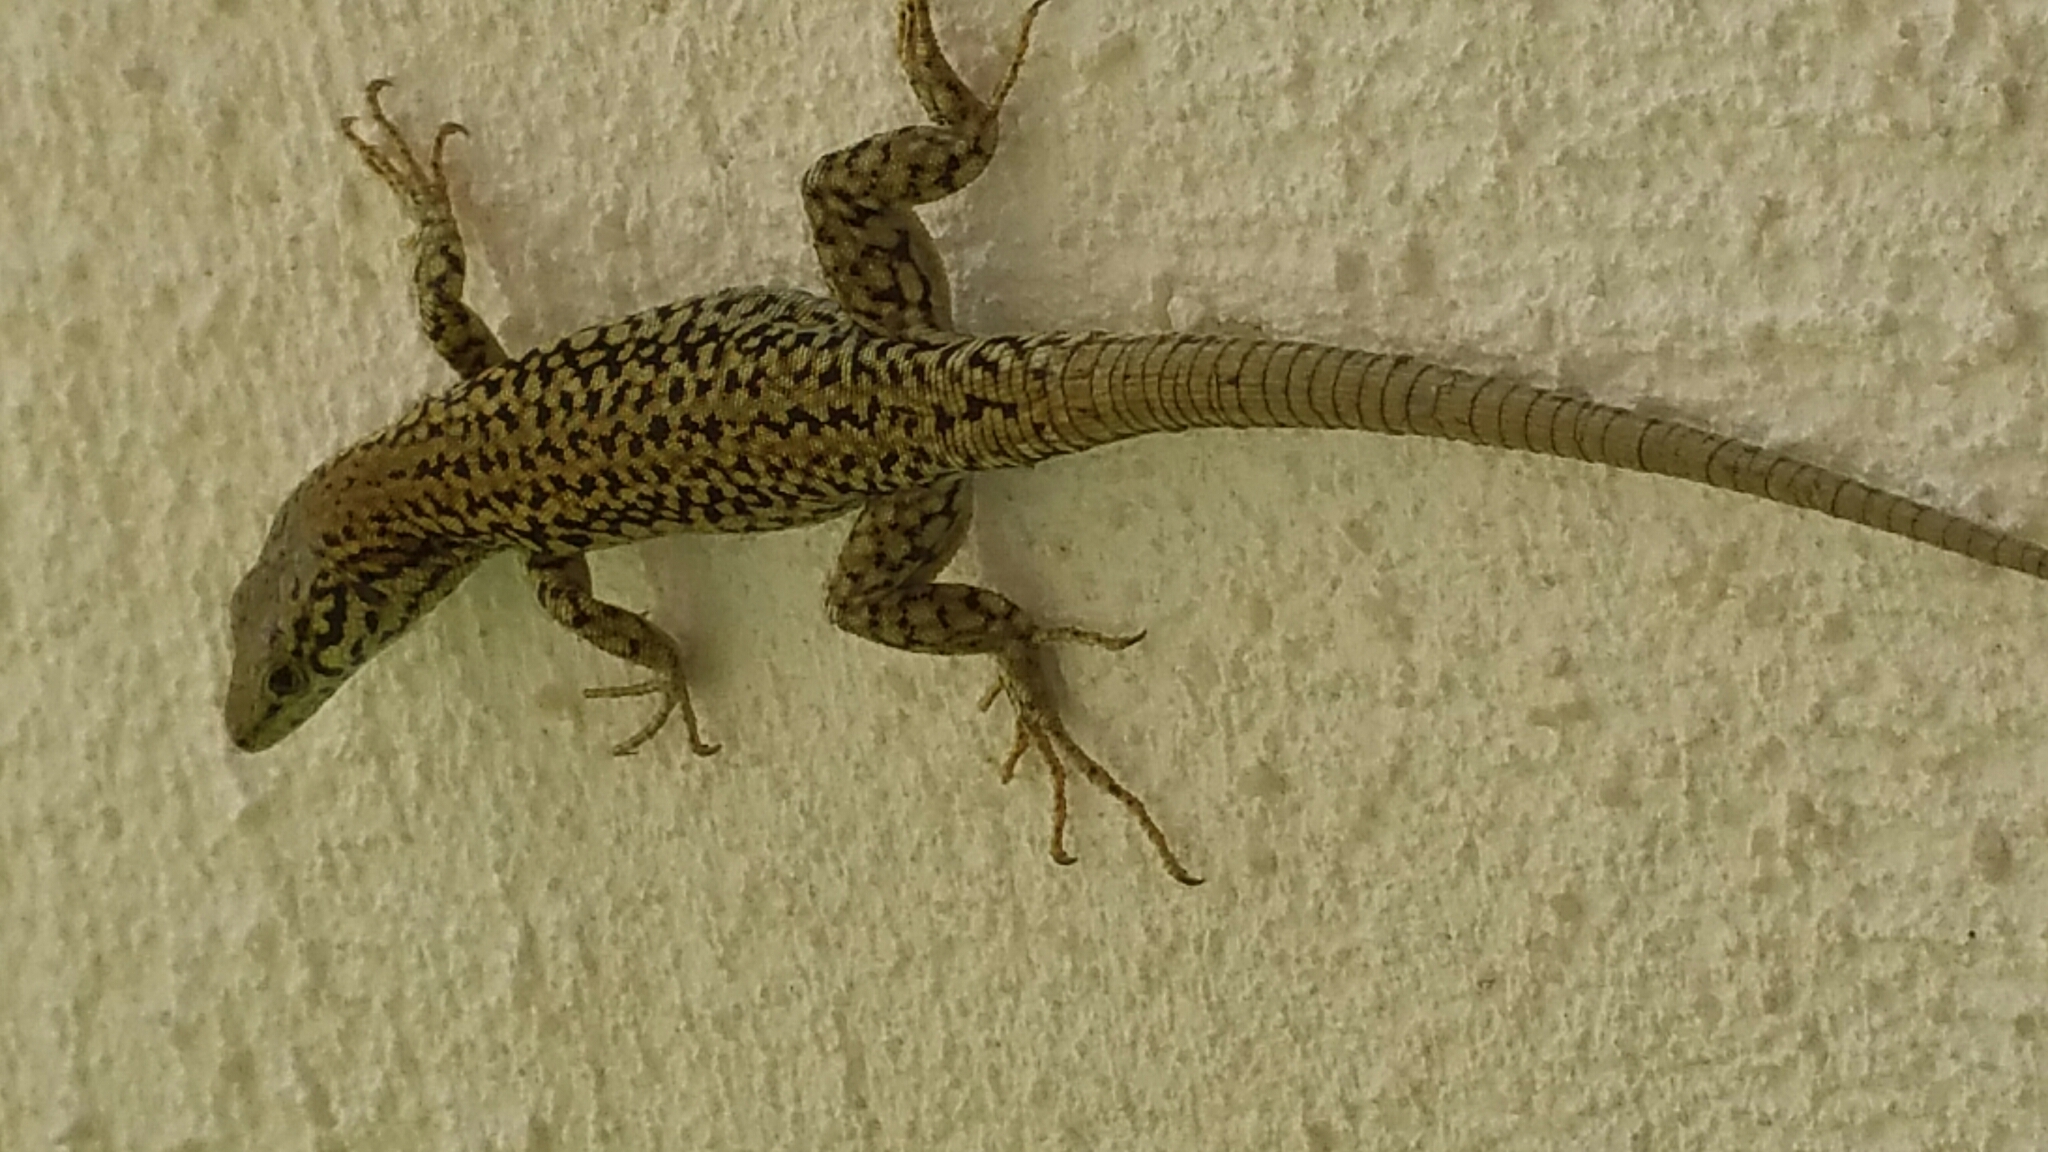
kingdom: Animalia
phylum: Chordata
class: Squamata
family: Lacertidae
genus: Podarcis
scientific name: Podarcis liolepis
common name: Catalonian wall lizard
